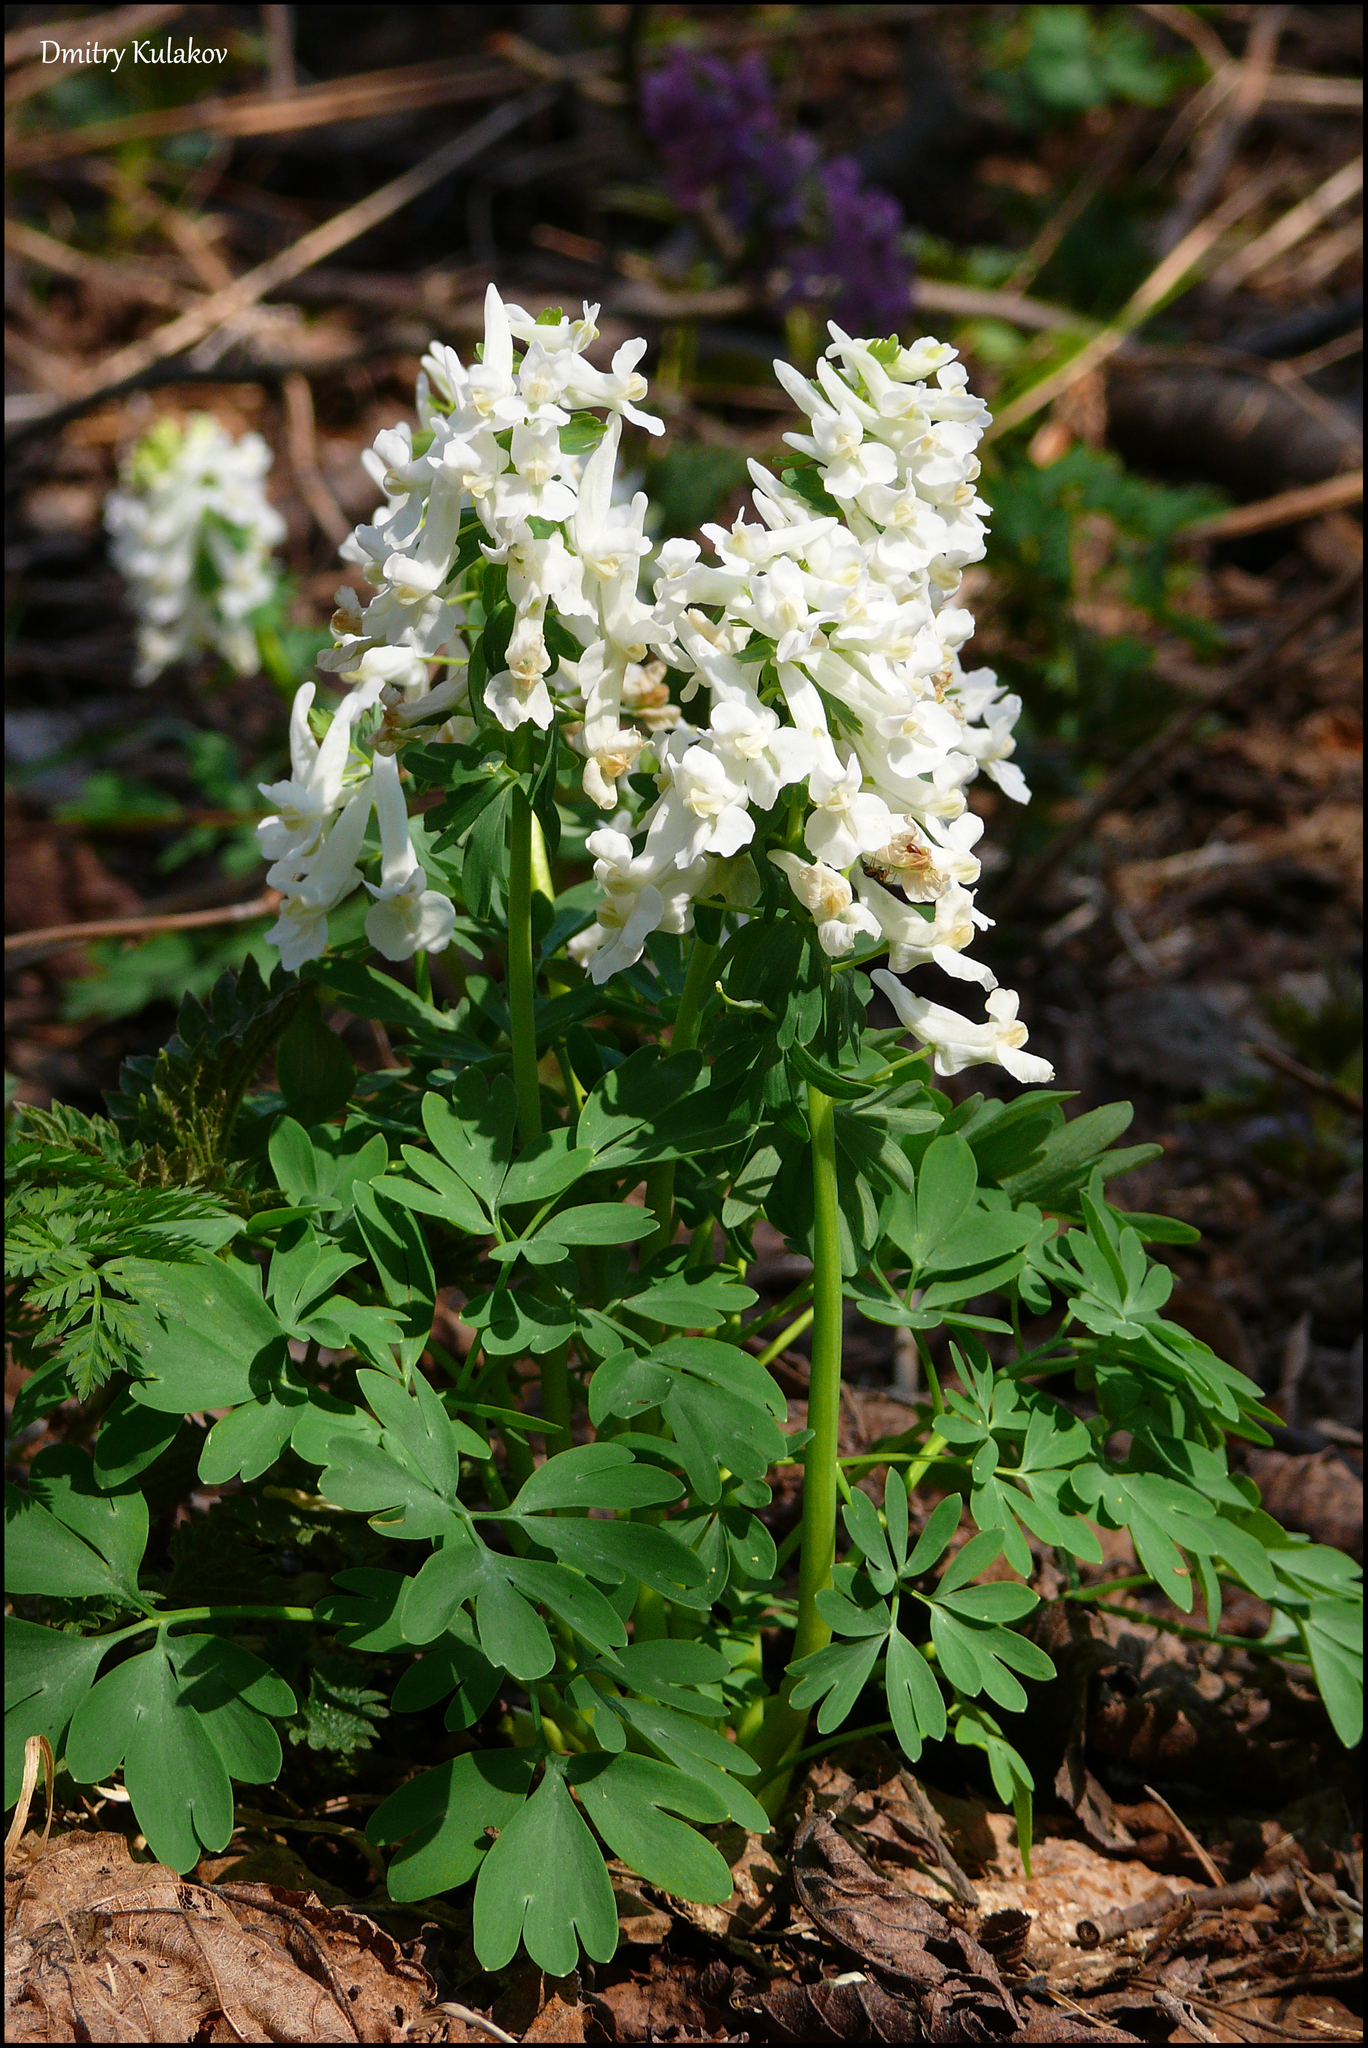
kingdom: Plantae
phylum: Tracheophyta
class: Magnoliopsida
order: Ranunculales
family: Papaveraceae
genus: Corydalis
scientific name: Corydalis solida
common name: Bird-in-a-bush
